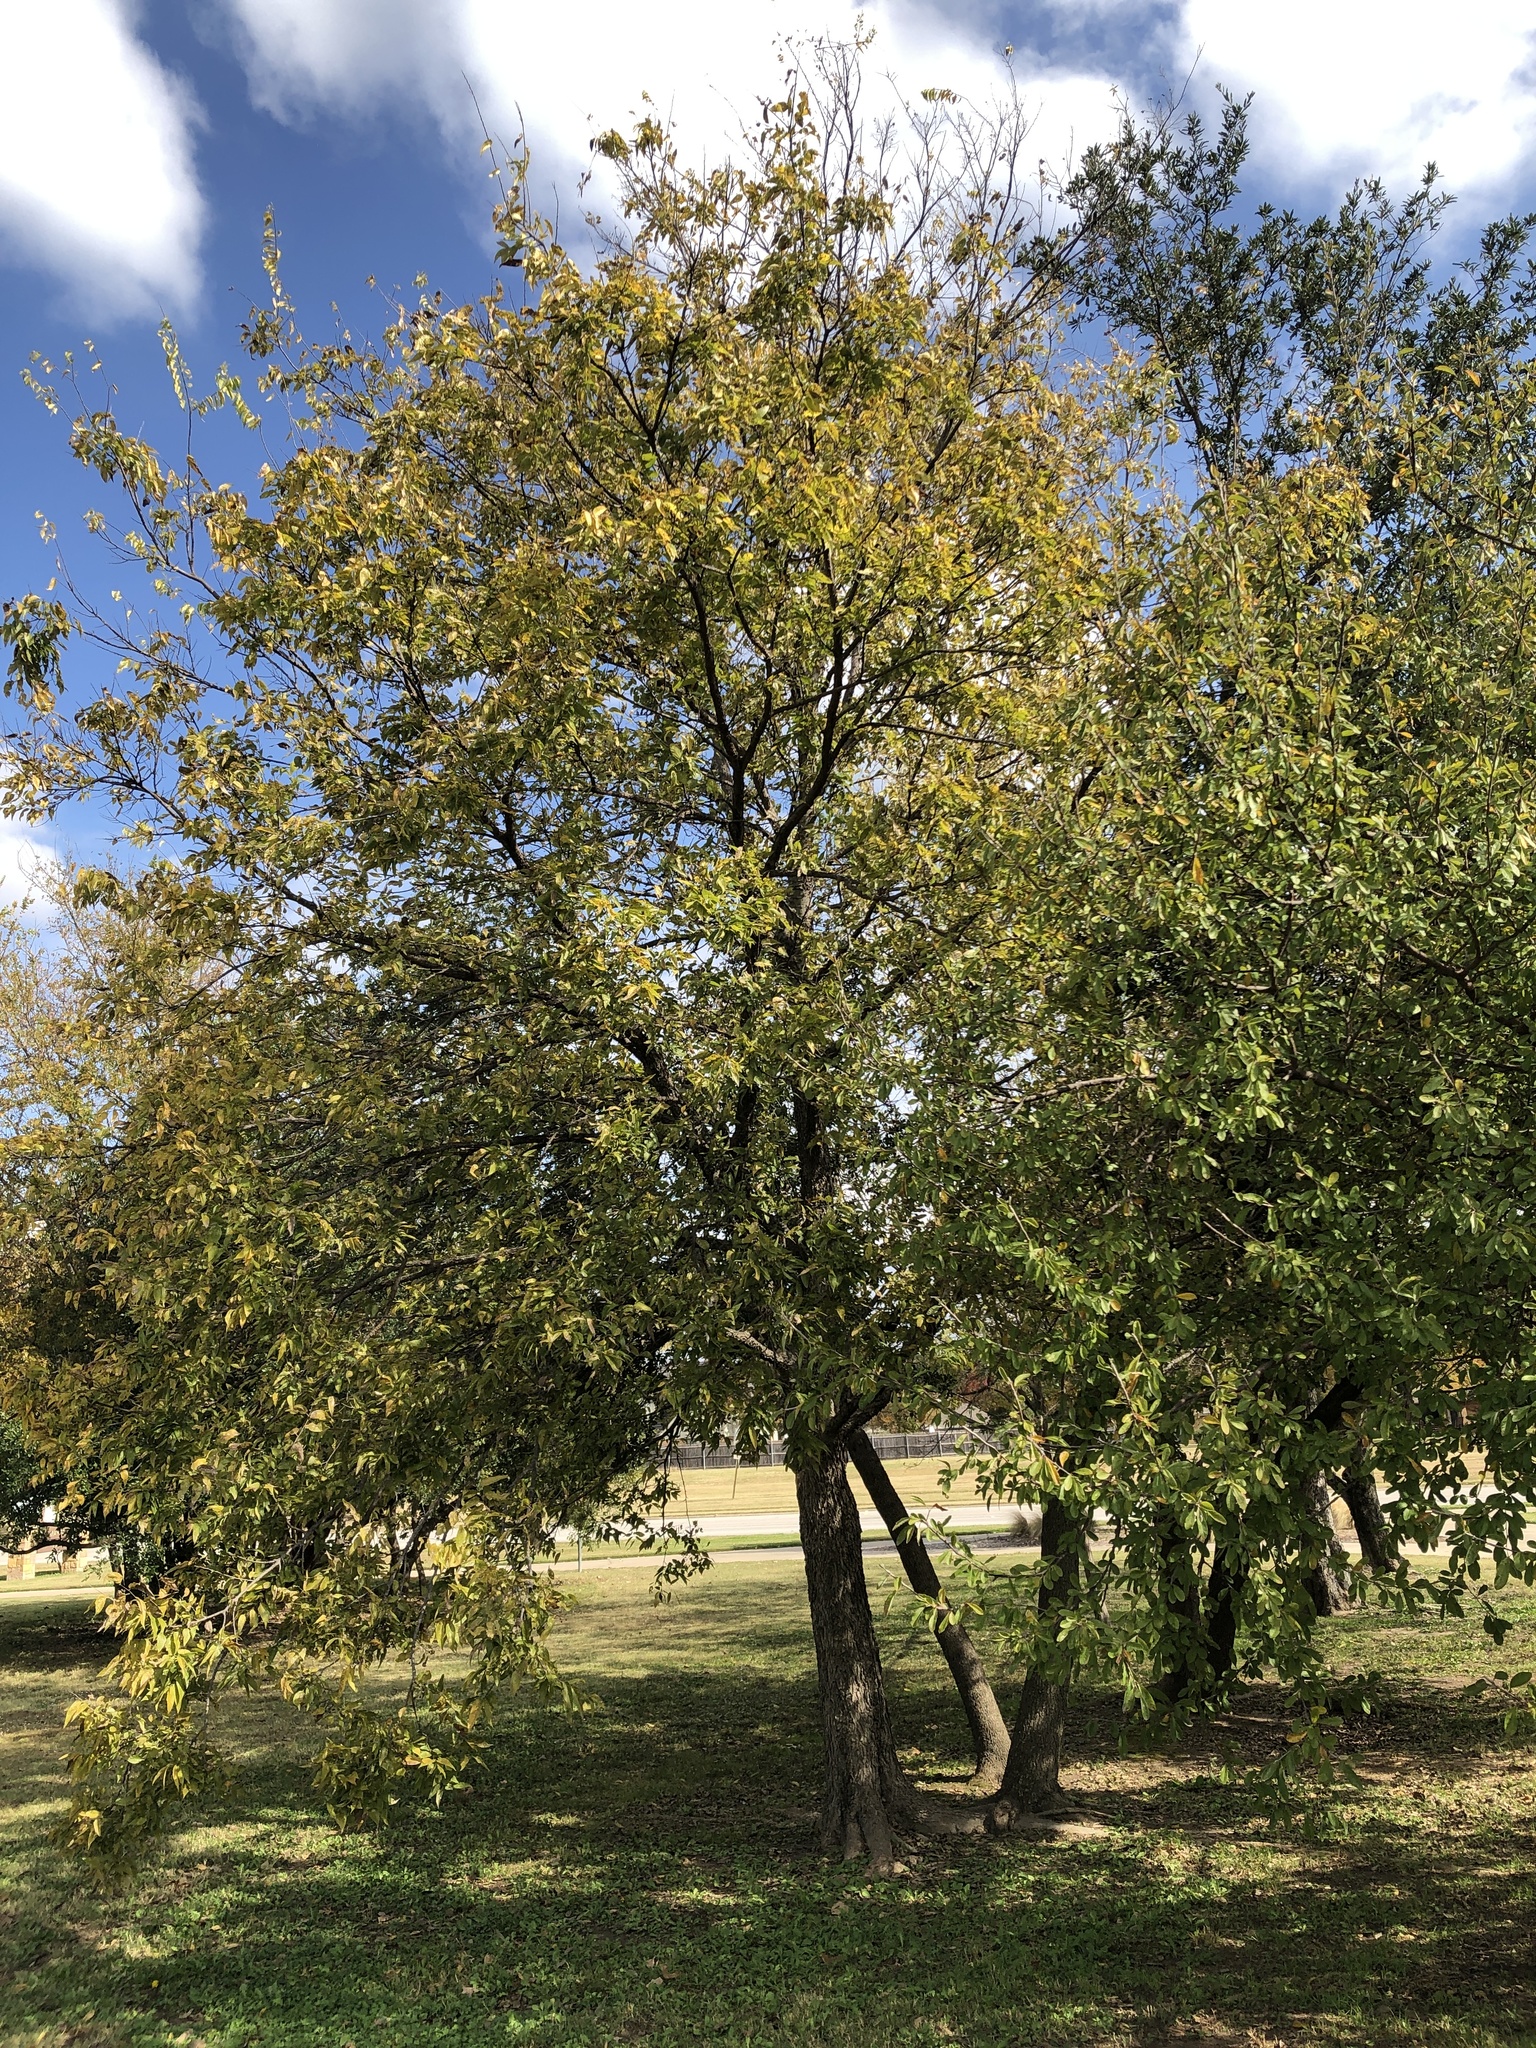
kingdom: Plantae
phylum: Tracheophyta
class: Magnoliopsida
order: Rosales
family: Cannabaceae
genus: Celtis
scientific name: Celtis laevigata
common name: Sugarberry
